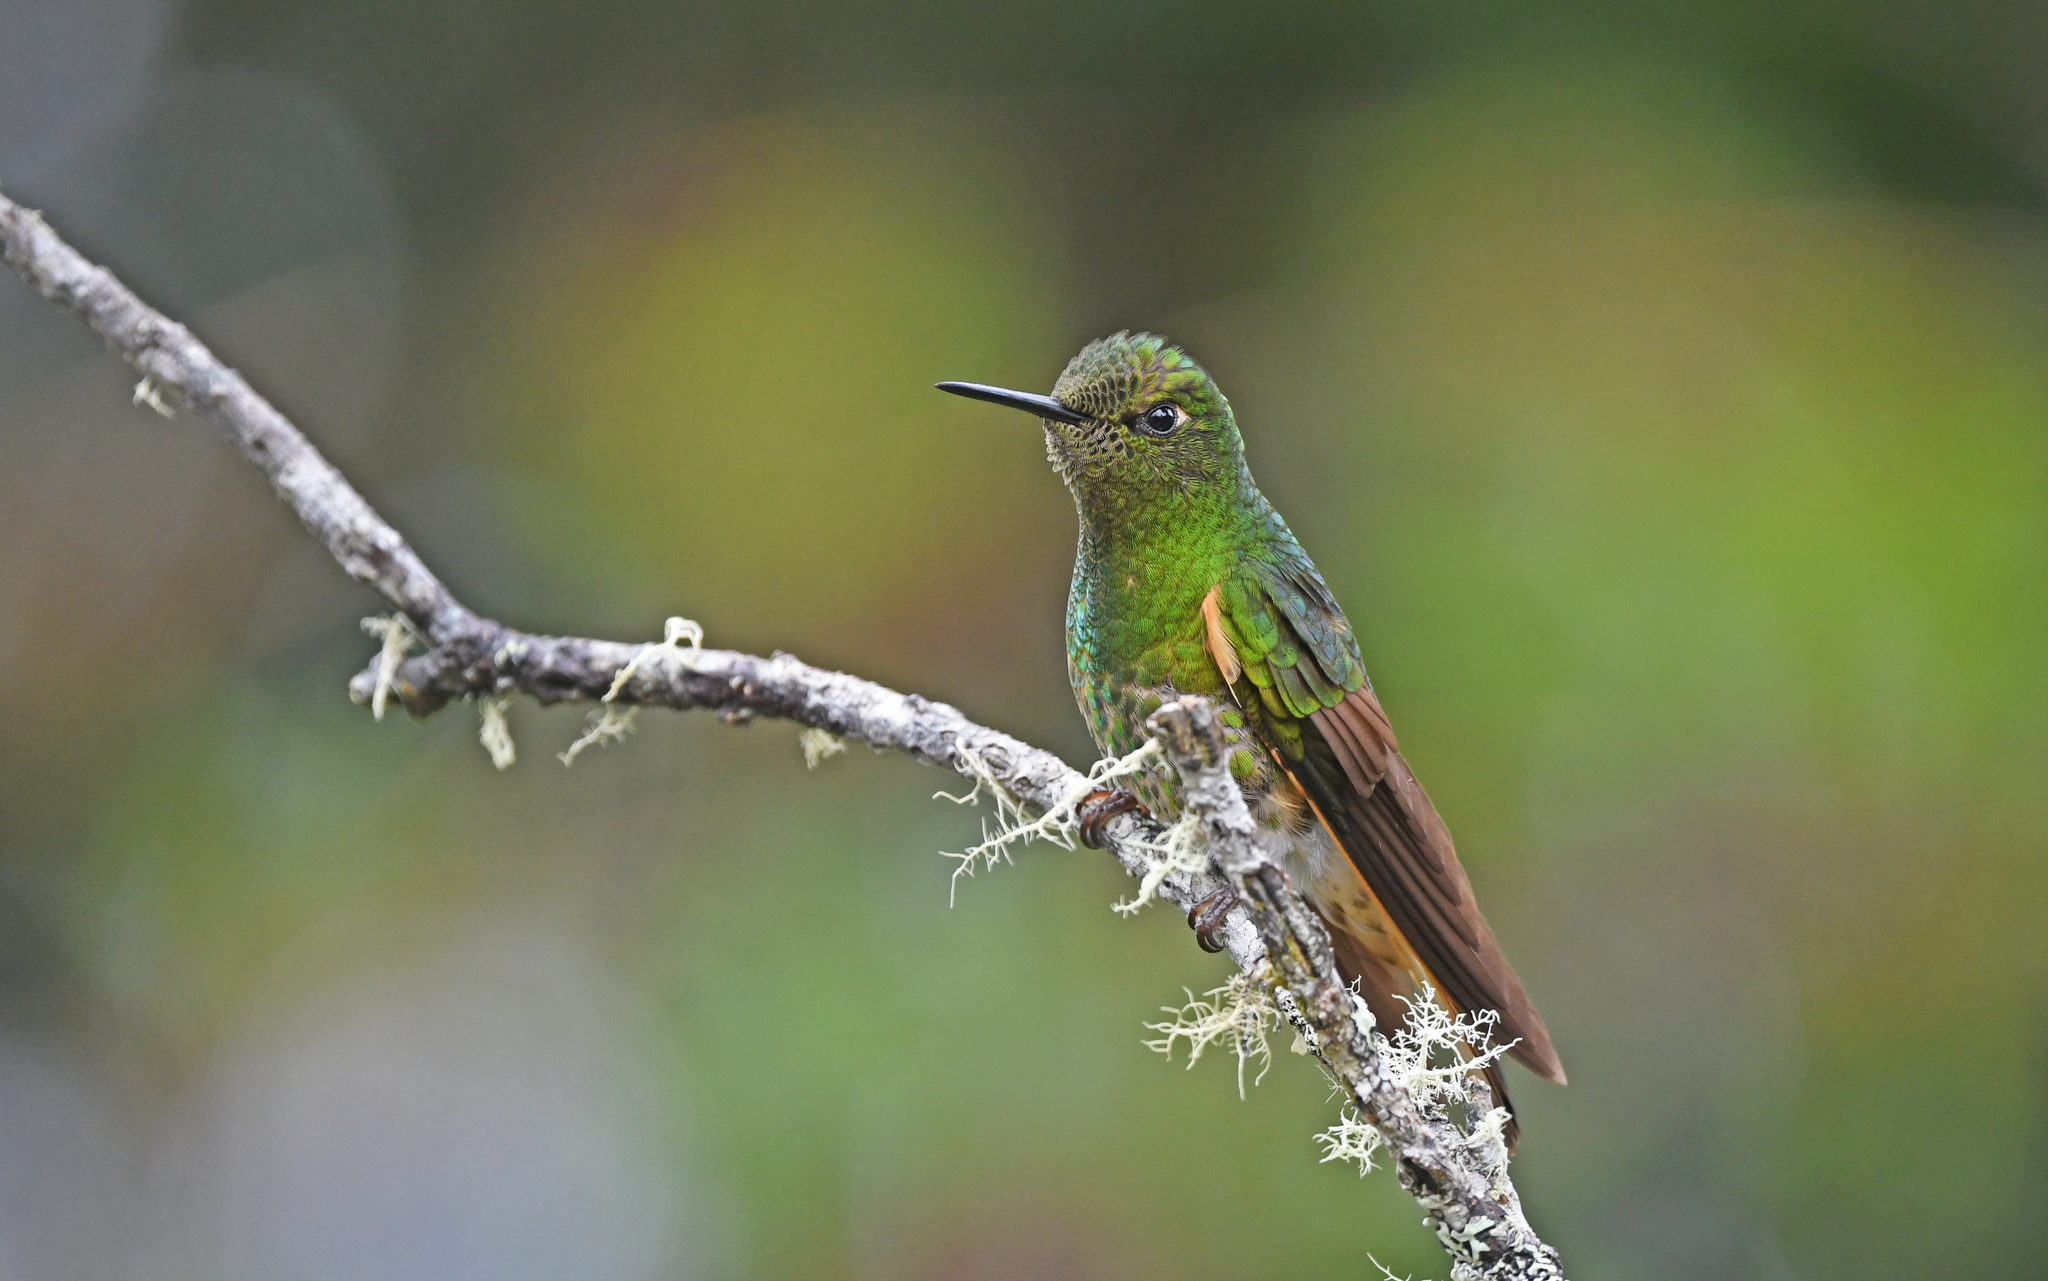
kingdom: Animalia
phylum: Chordata
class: Aves
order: Apodiformes
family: Trochilidae
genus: Boissonneaua
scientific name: Boissonneaua flavescens
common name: Buff-tailed coronet
